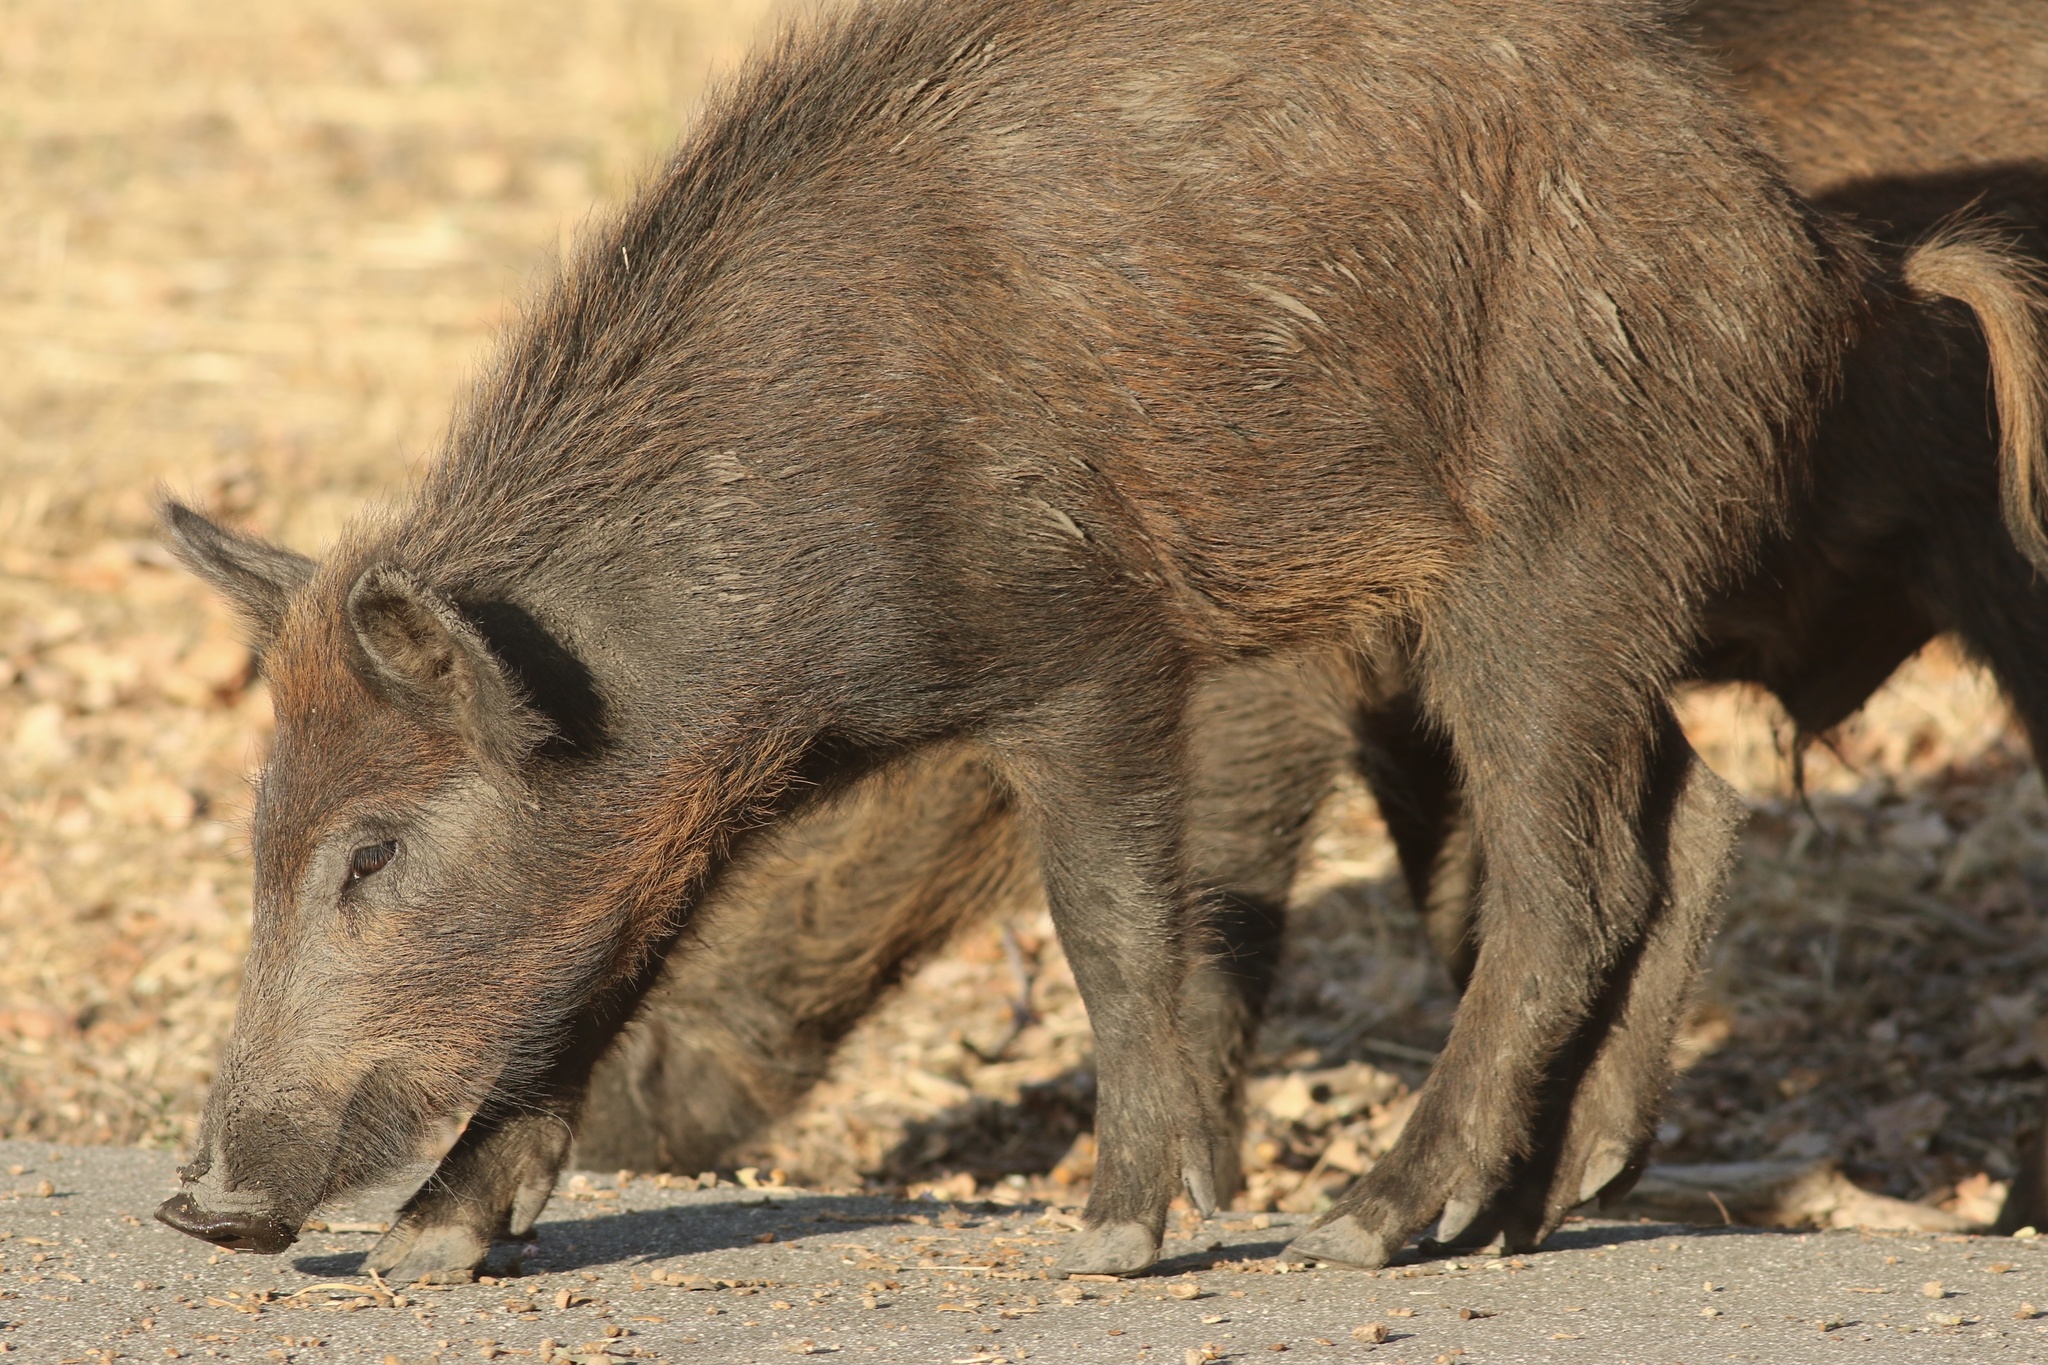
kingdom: Animalia
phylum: Chordata
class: Mammalia
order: Artiodactyla
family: Suidae
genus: Sus
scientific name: Sus scrofa
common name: Wild boar
